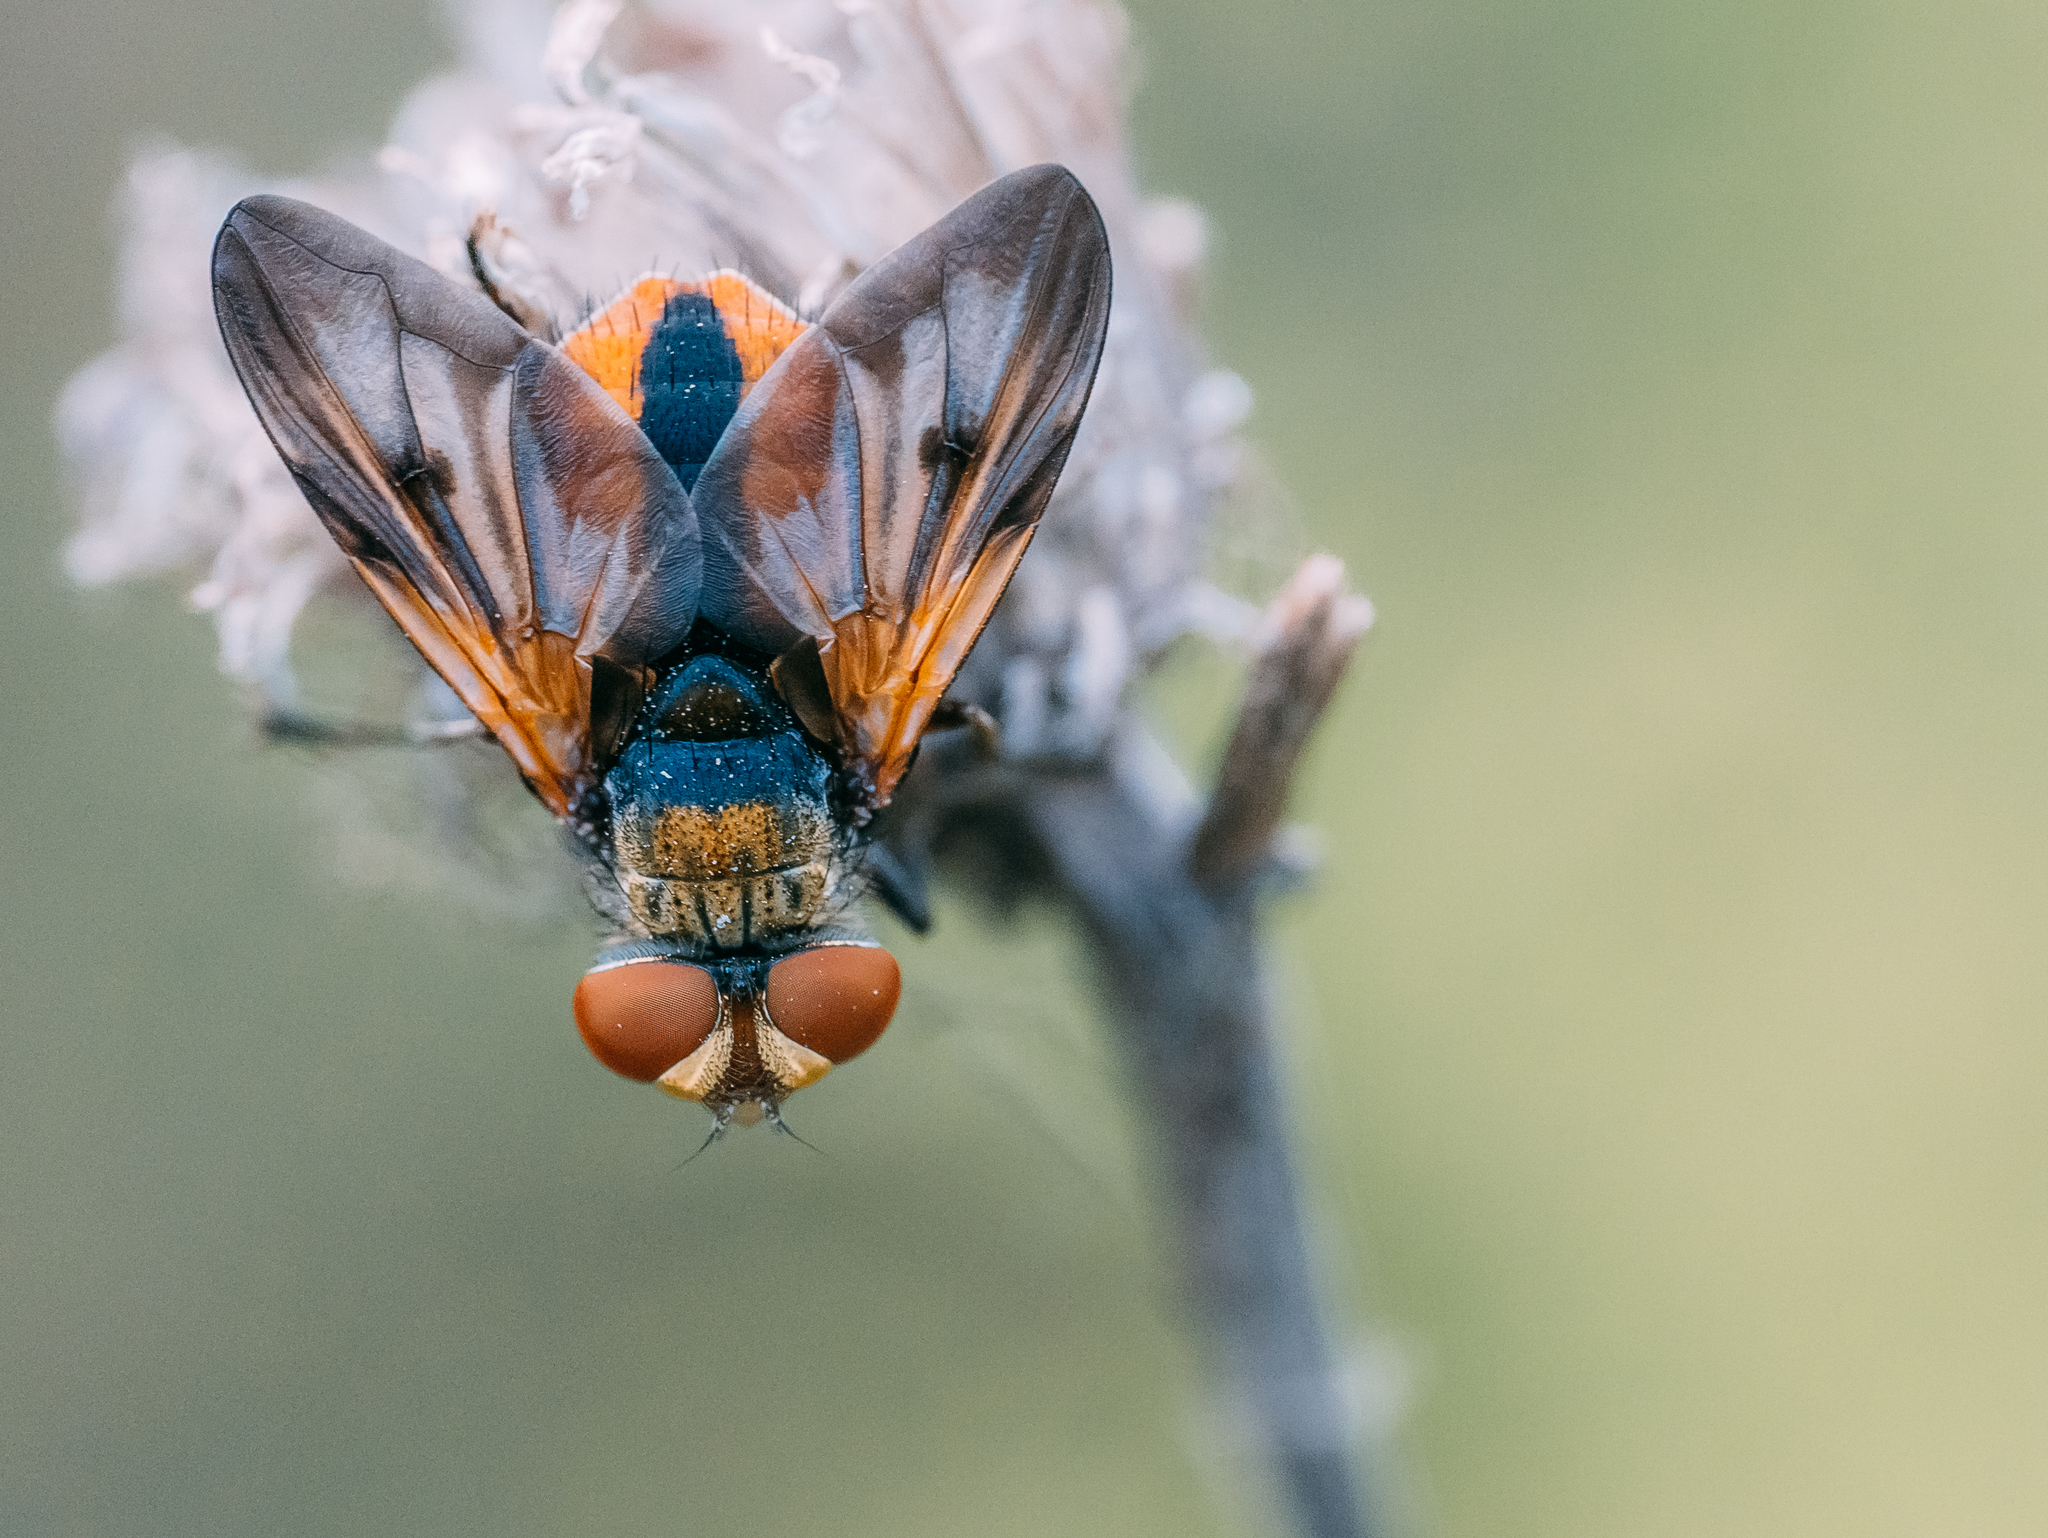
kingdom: Animalia
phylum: Arthropoda
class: Insecta
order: Diptera
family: Tachinidae
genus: Ectophasia
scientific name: Ectophasia crassipennis
